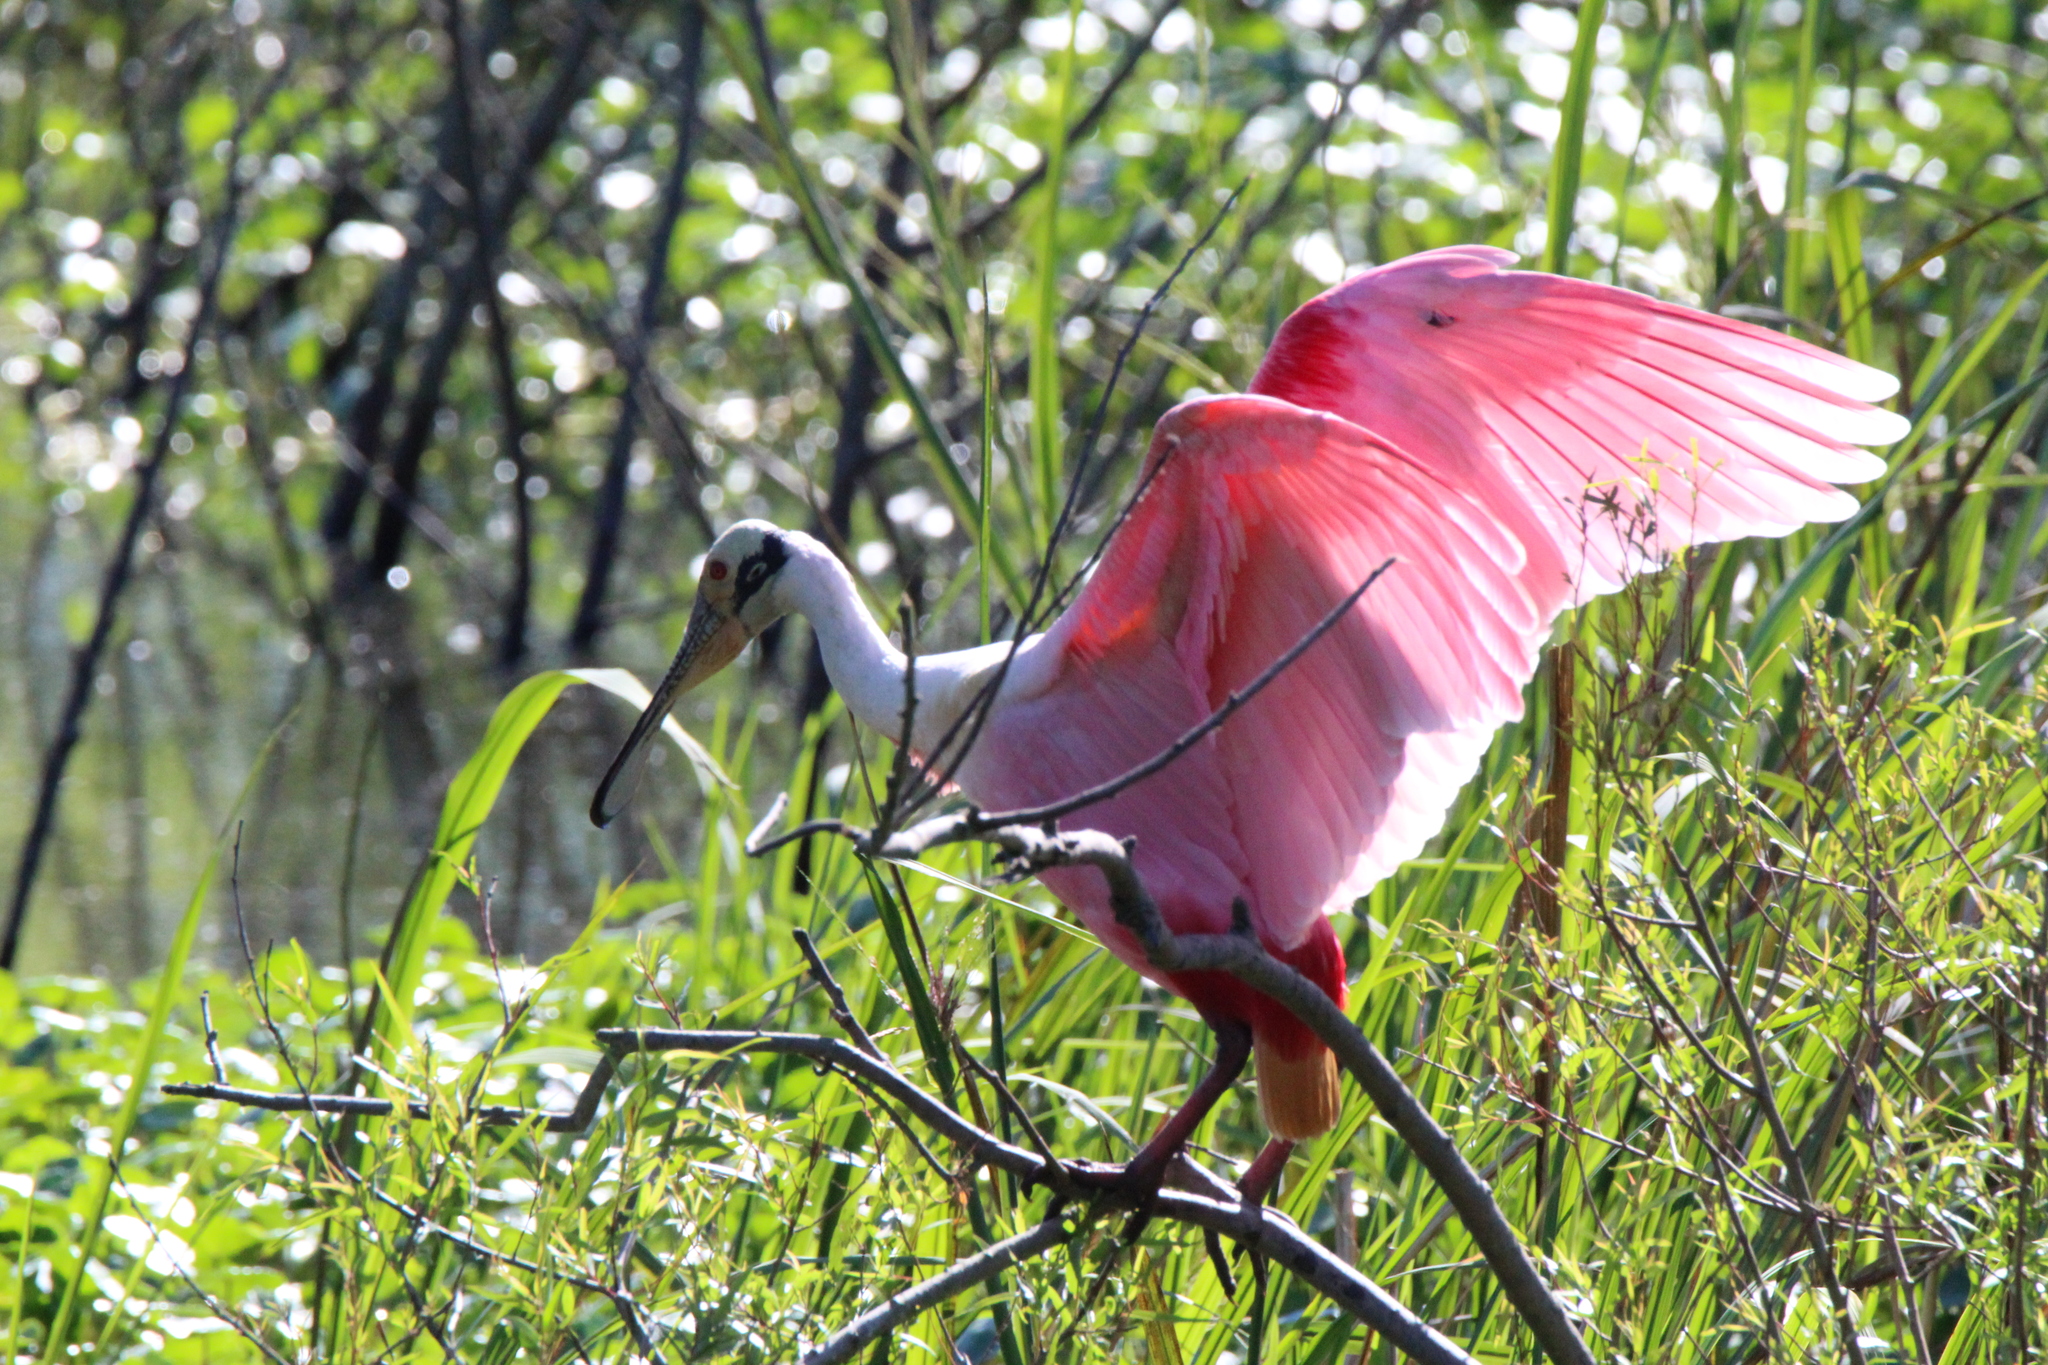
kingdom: Animalia
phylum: Chordata
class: Aves
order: Pelecaniformes
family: Threskiornithidae
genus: Platalea
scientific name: Platalea ajaja
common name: Roseate spoonbill
